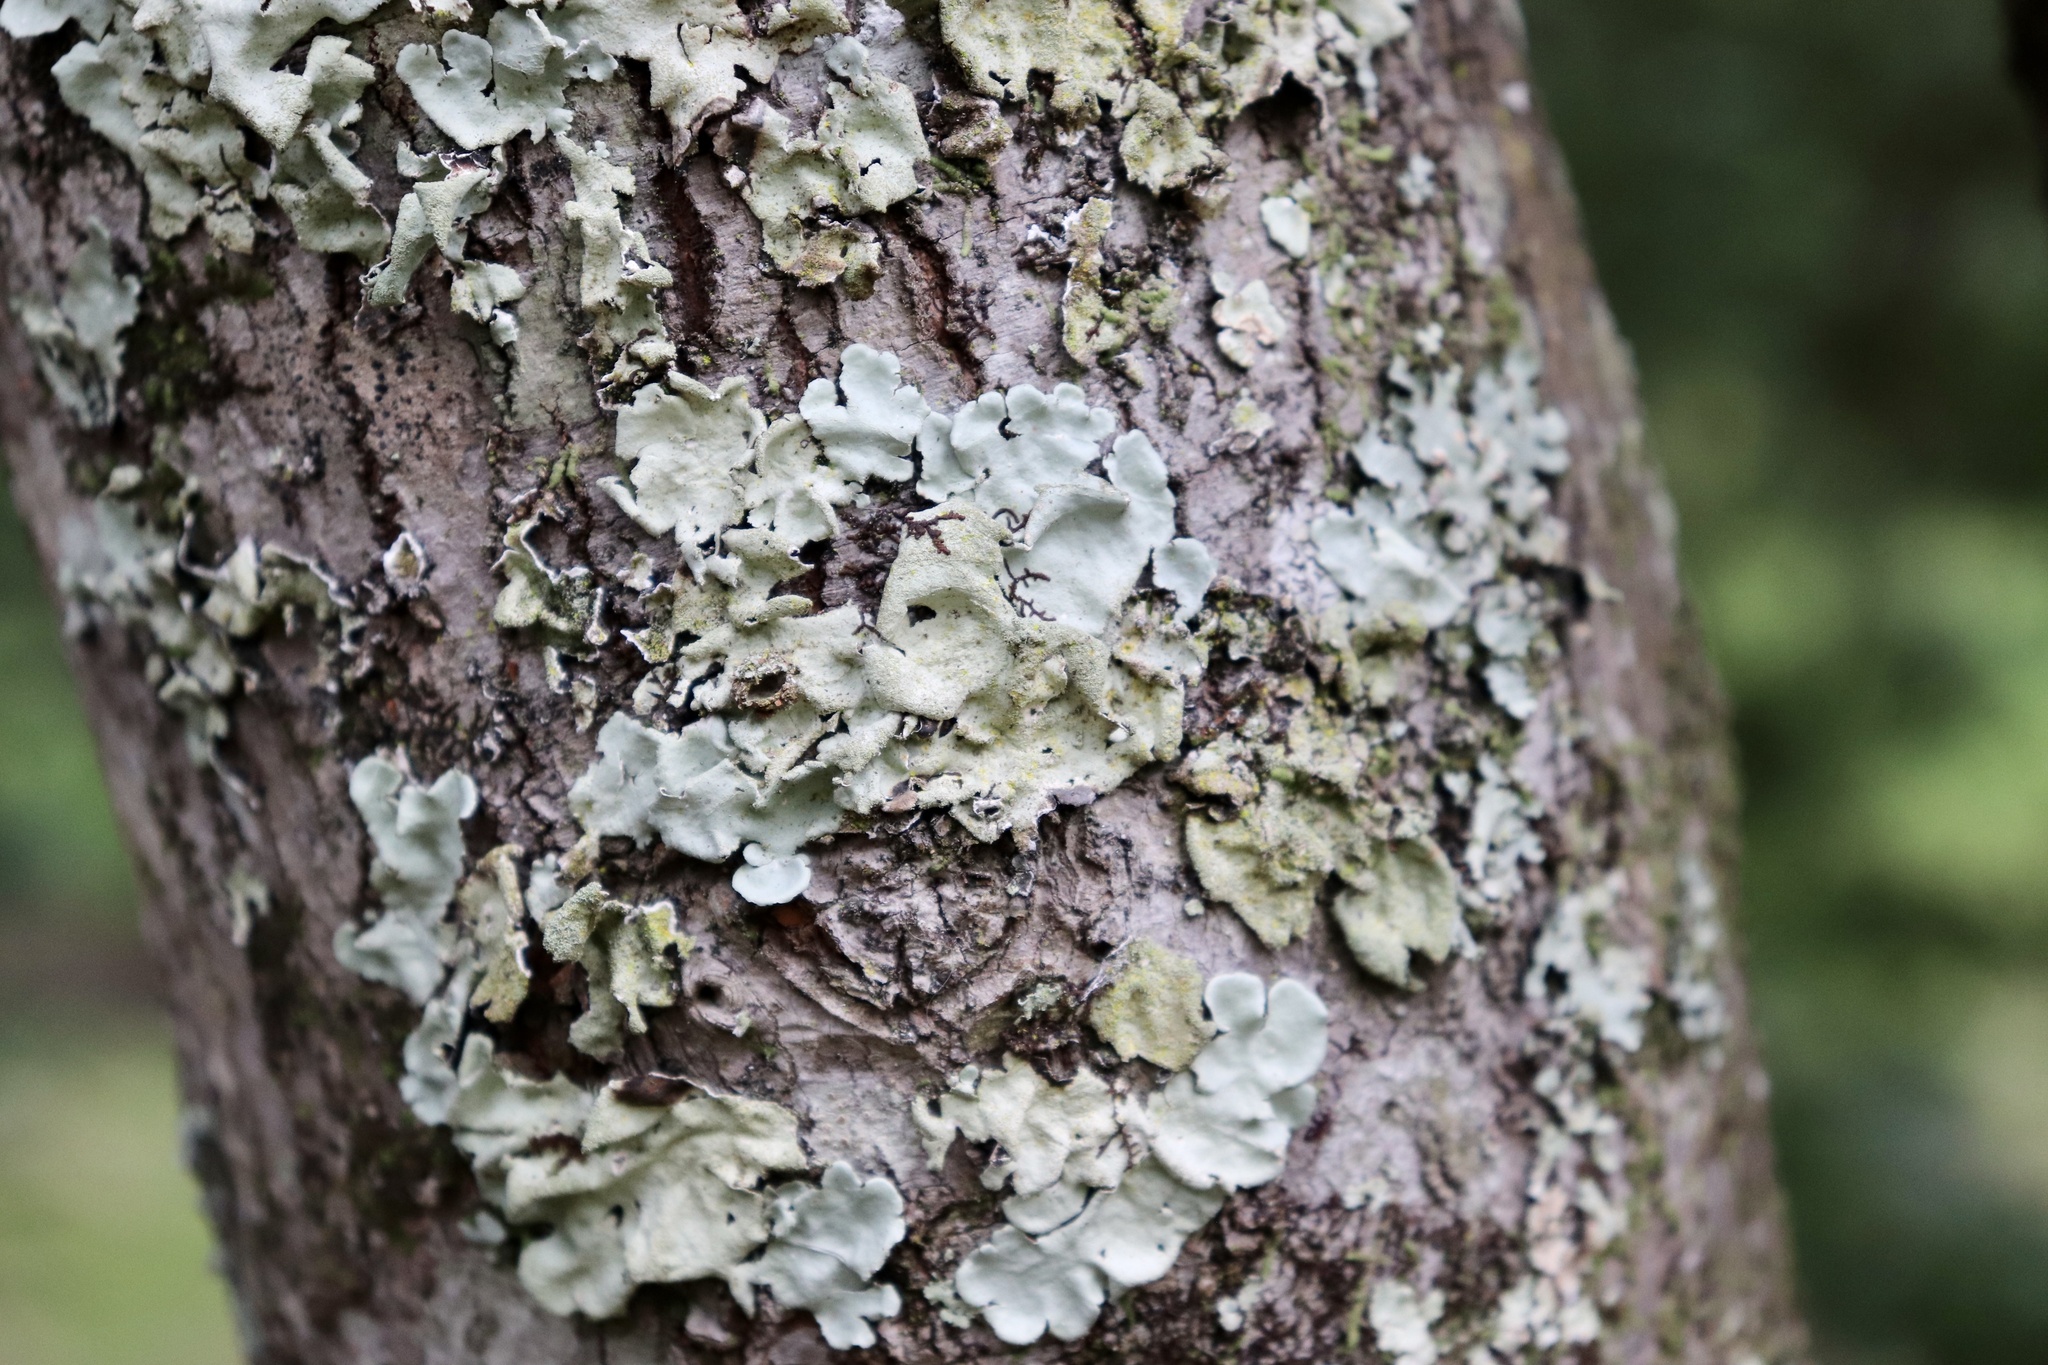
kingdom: Fungi
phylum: Ascomycota
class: Lecanoromycetes
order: Lecanorales
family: Parmeliaceae
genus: Parmotrema
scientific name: Parmotrema tinctorum
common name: Old gray ruffles
